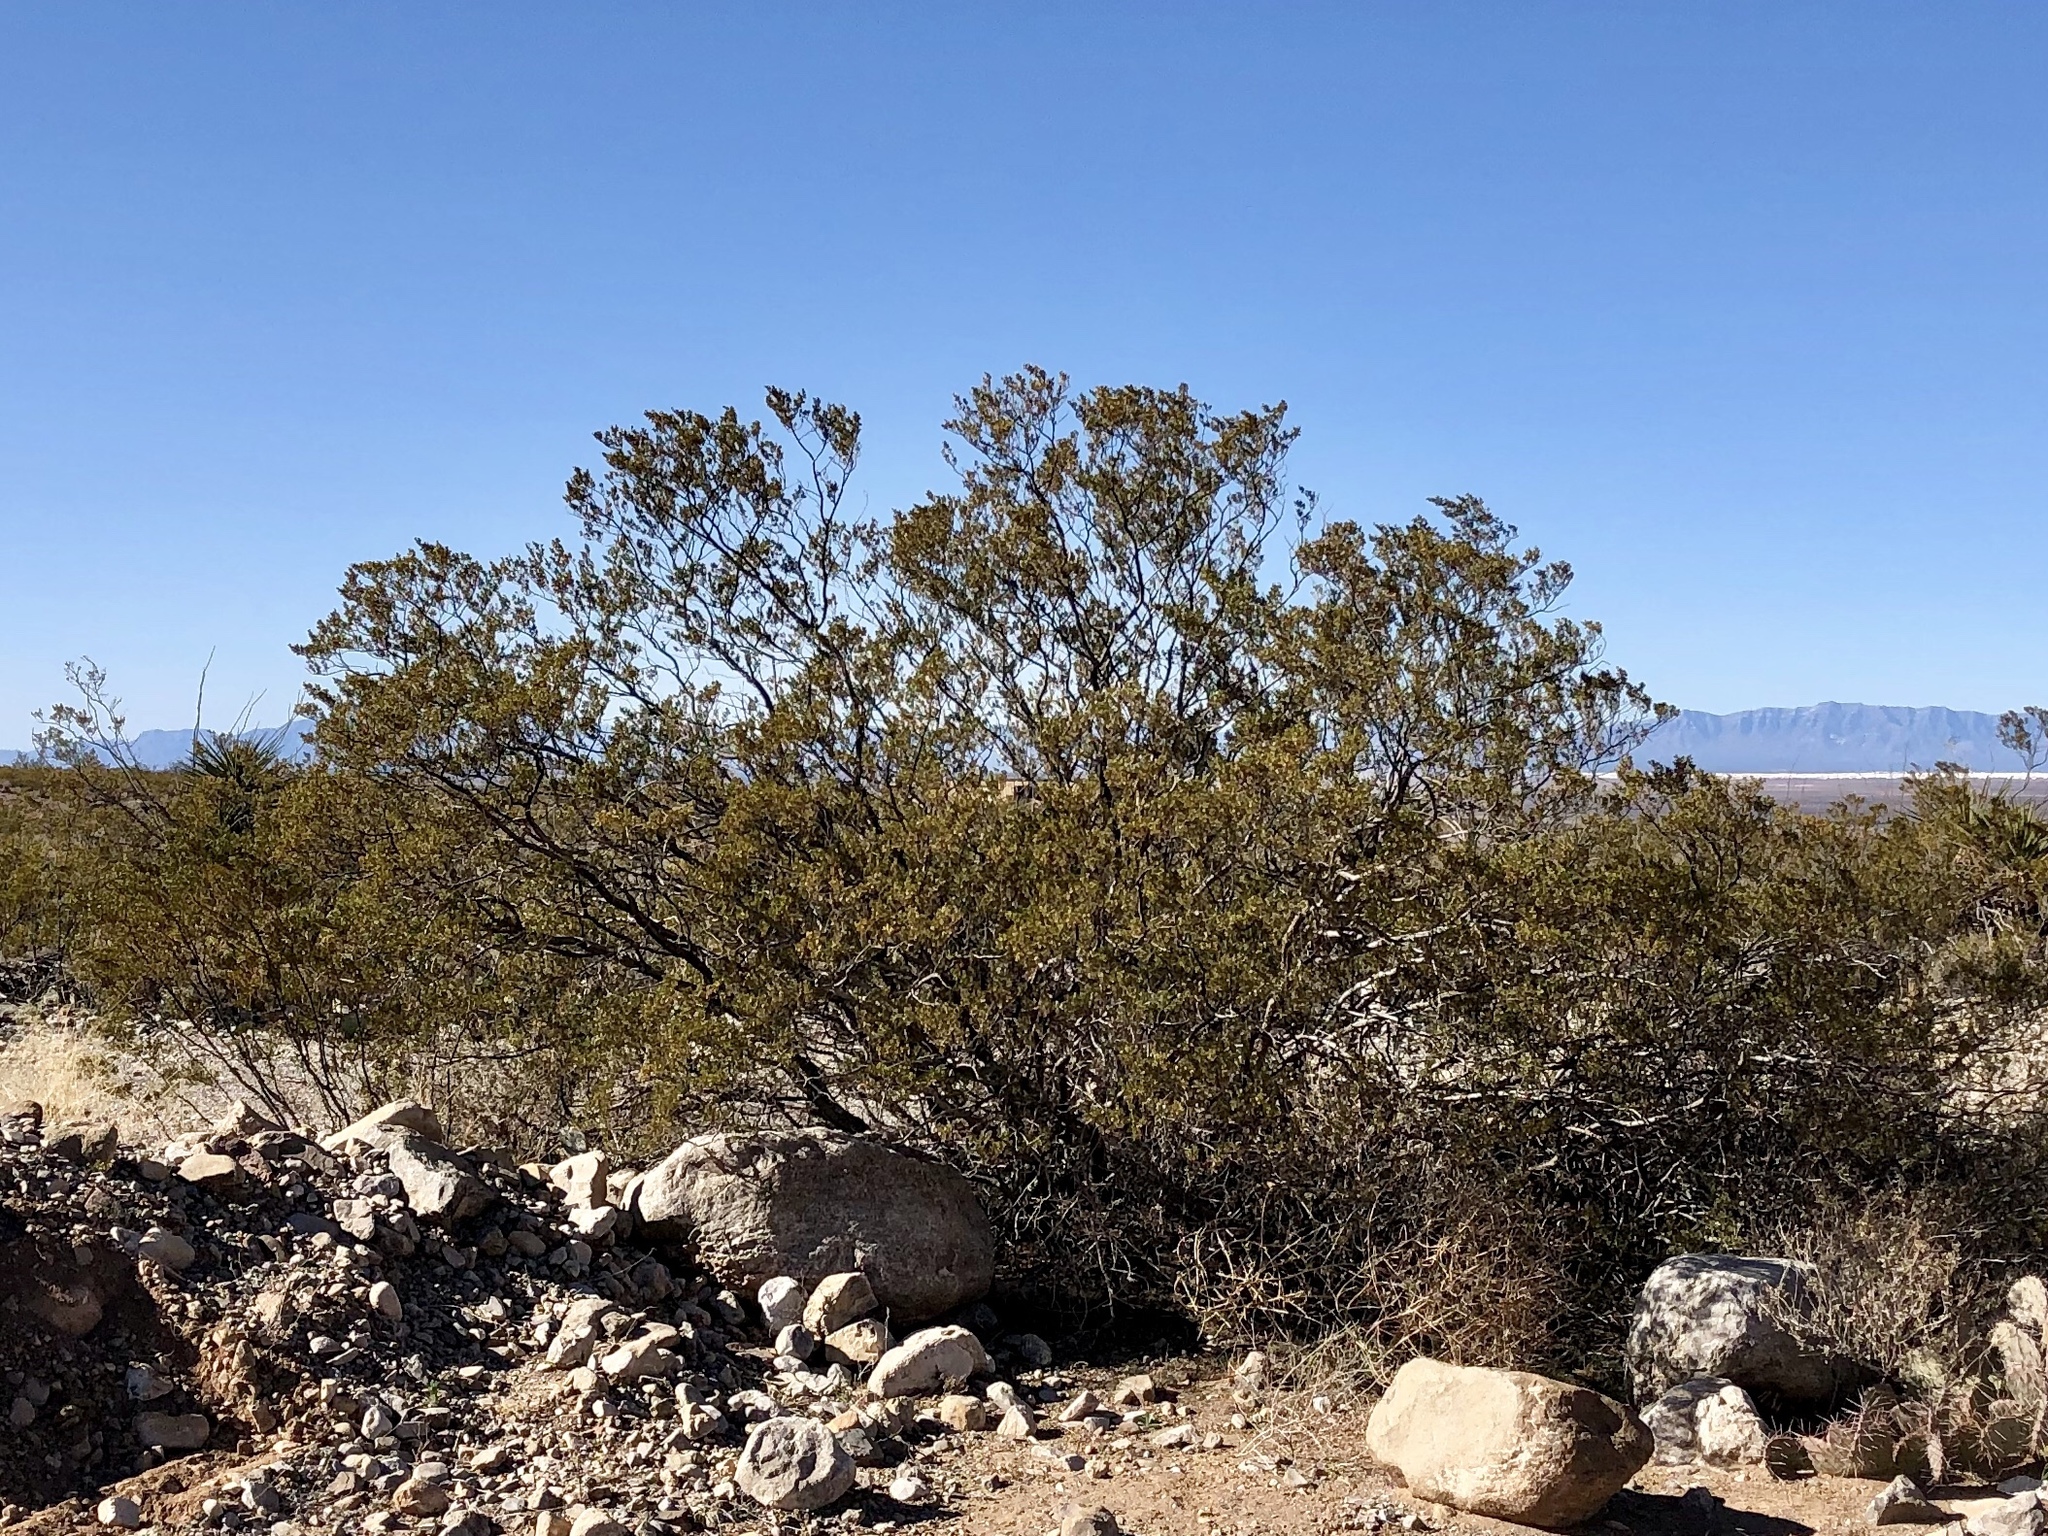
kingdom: Plantae
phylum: Tracheophyta
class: Magnoliopsida
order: Zygophyllales
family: Zygophyllaceae
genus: Larrea
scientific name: Larrea tridentata
